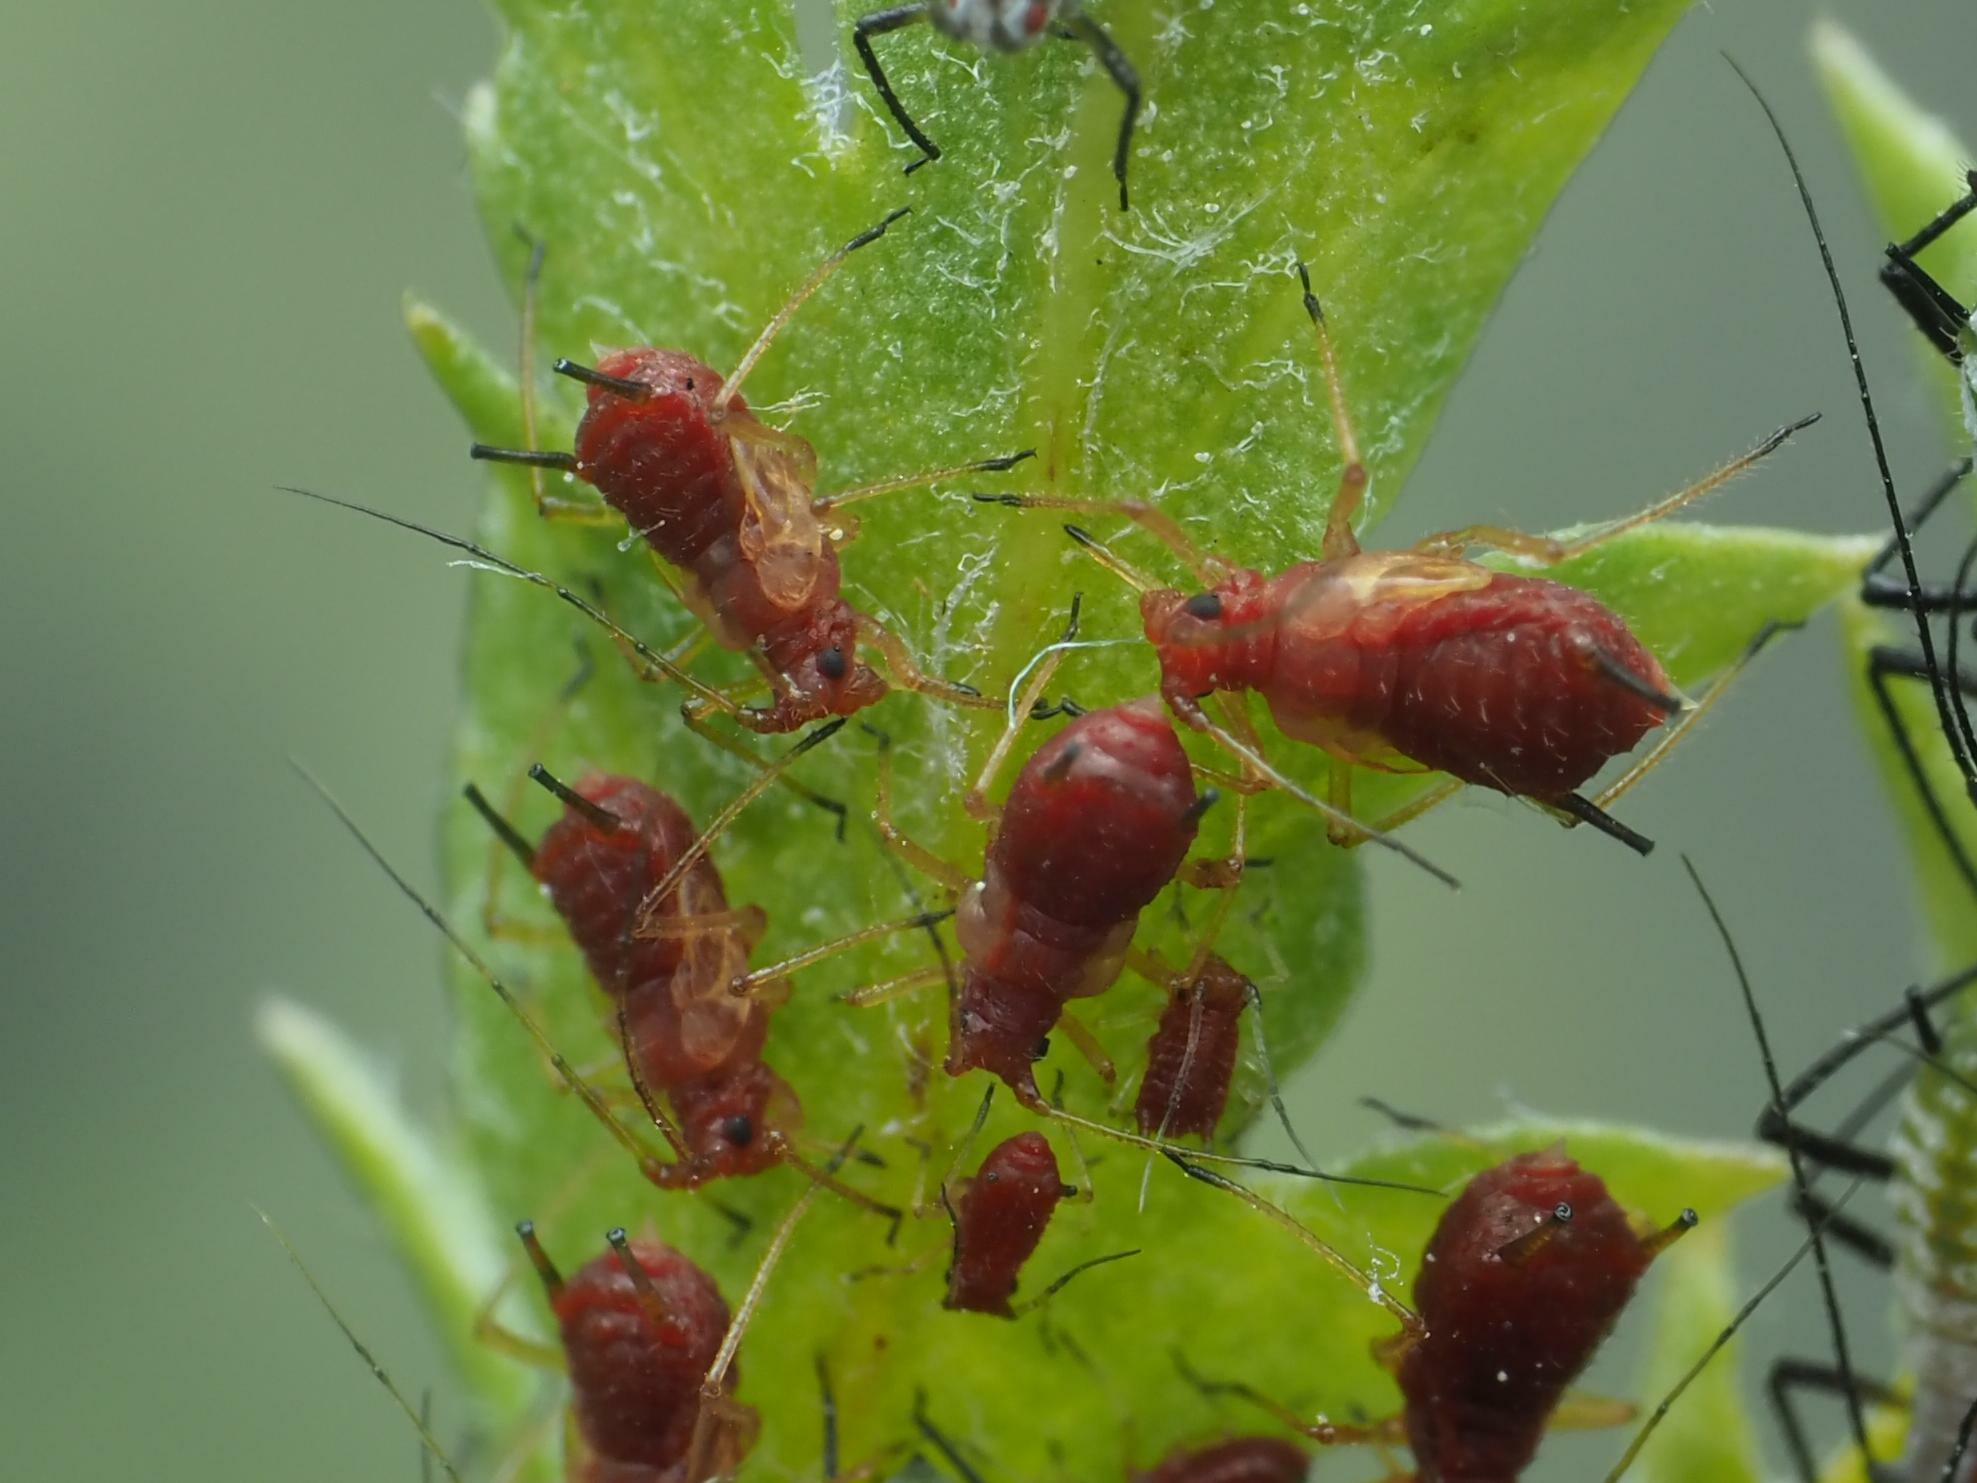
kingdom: Animalia
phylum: Arthropoda
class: Insecta
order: Hemiptera
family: Aphididae
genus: Uroleucon
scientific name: Uroleucon tanaceti
